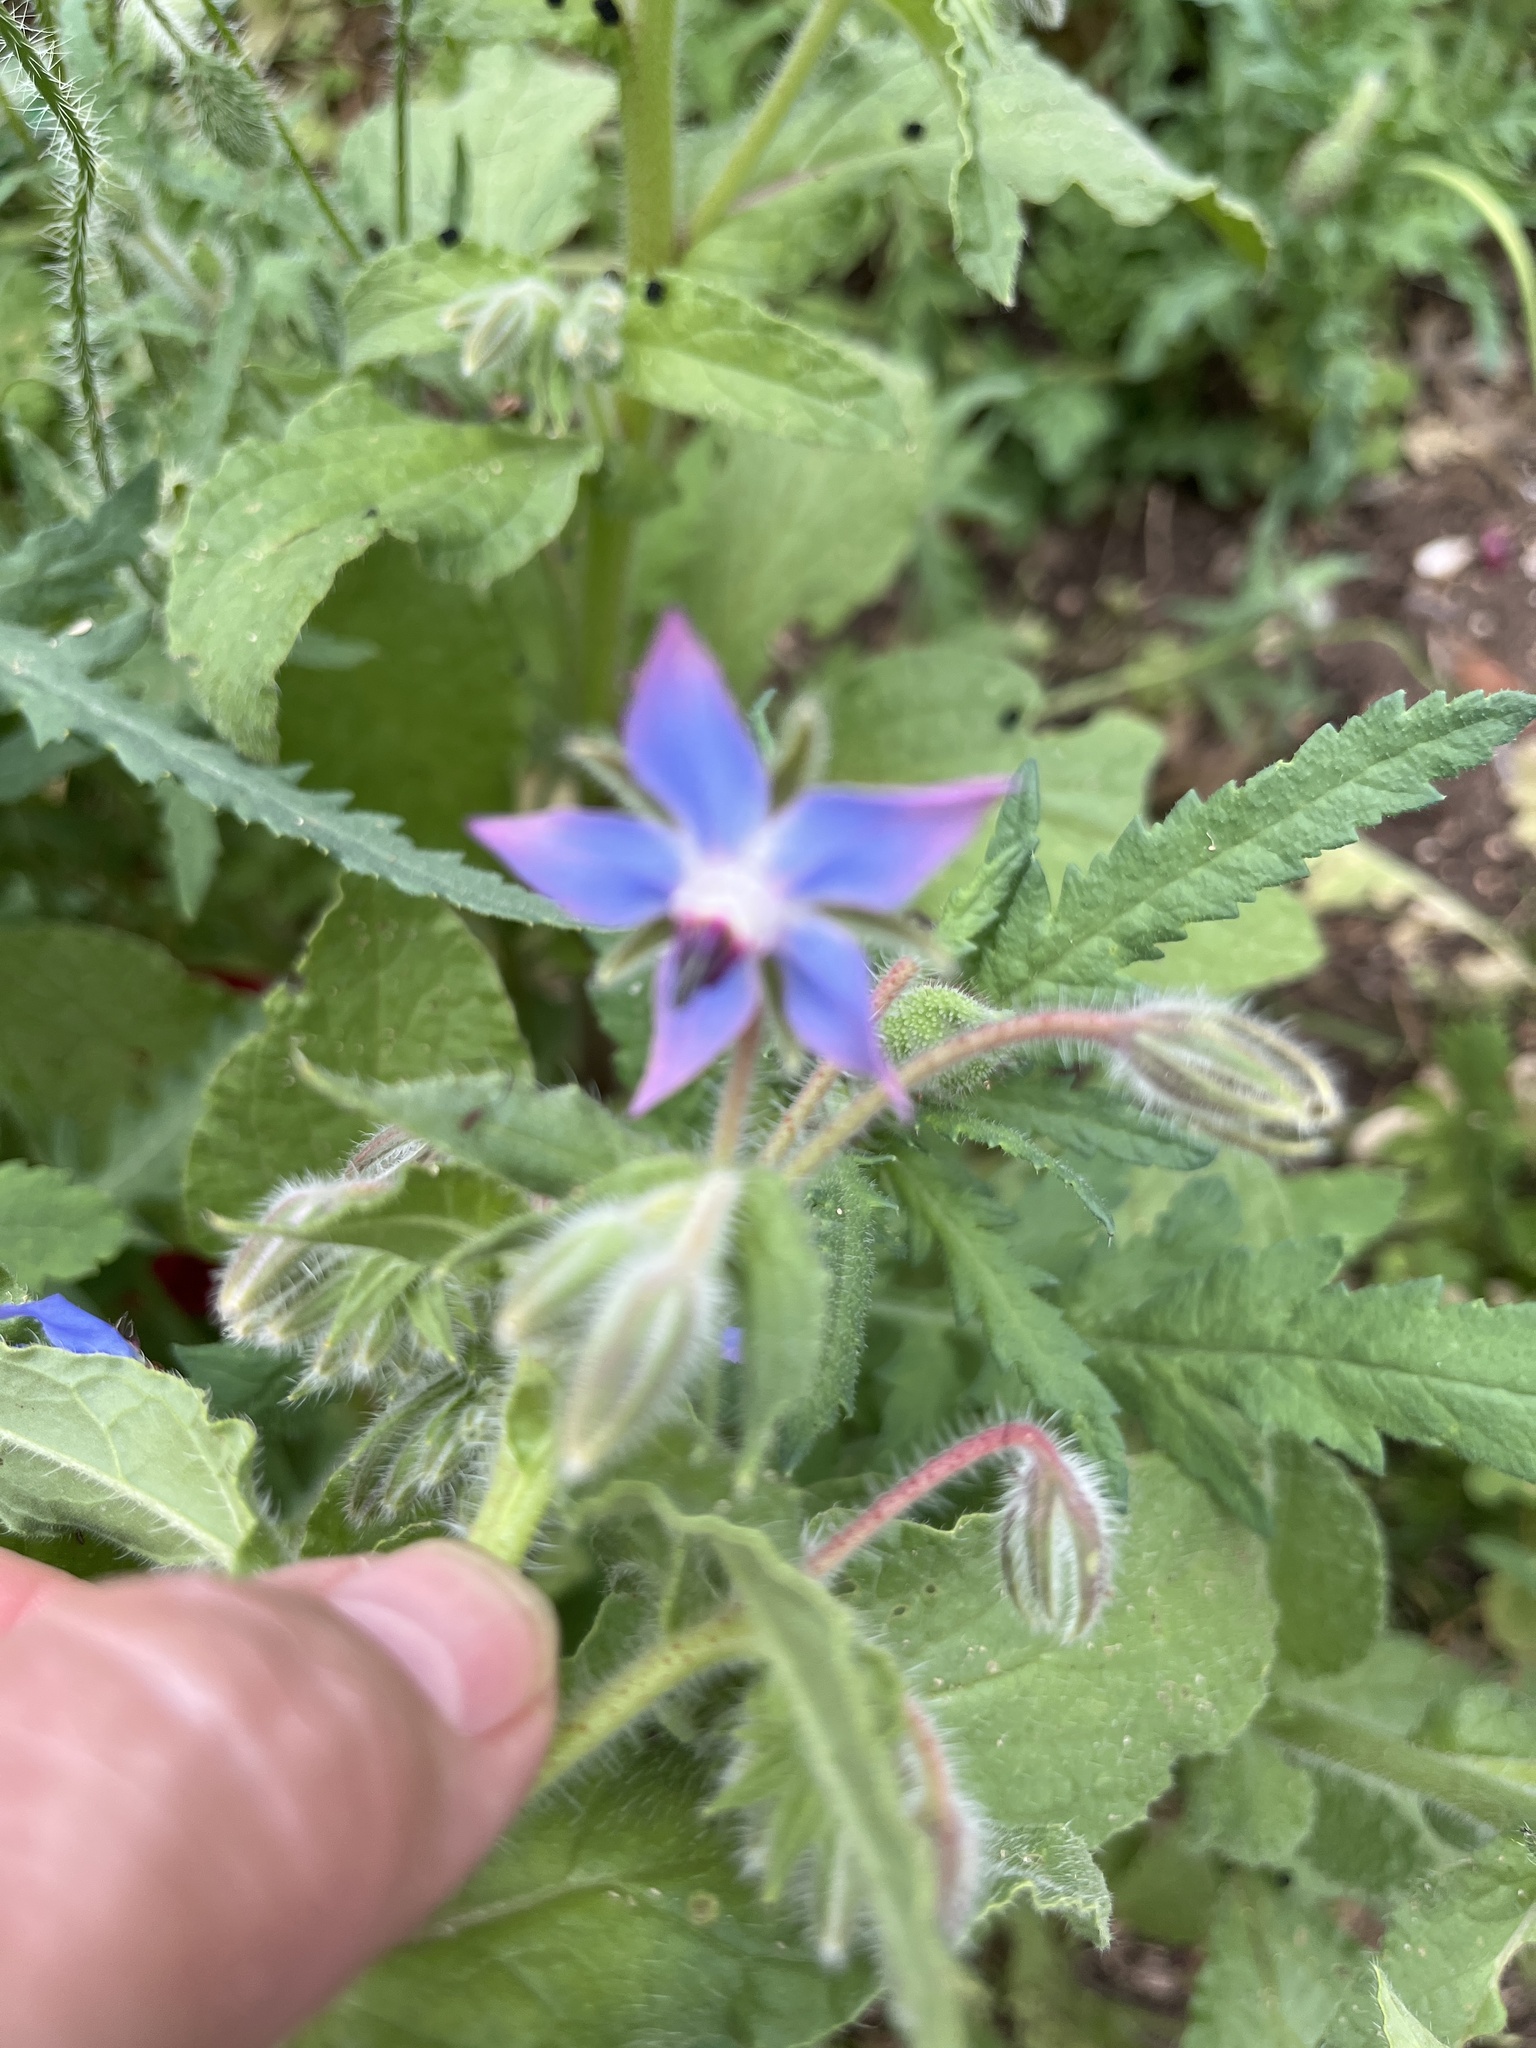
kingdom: Plantae
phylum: Tracheophyta
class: Magnoliopsida
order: Boraginales
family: Boraginaceae
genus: Borago
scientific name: Borago officinalis
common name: Borage
